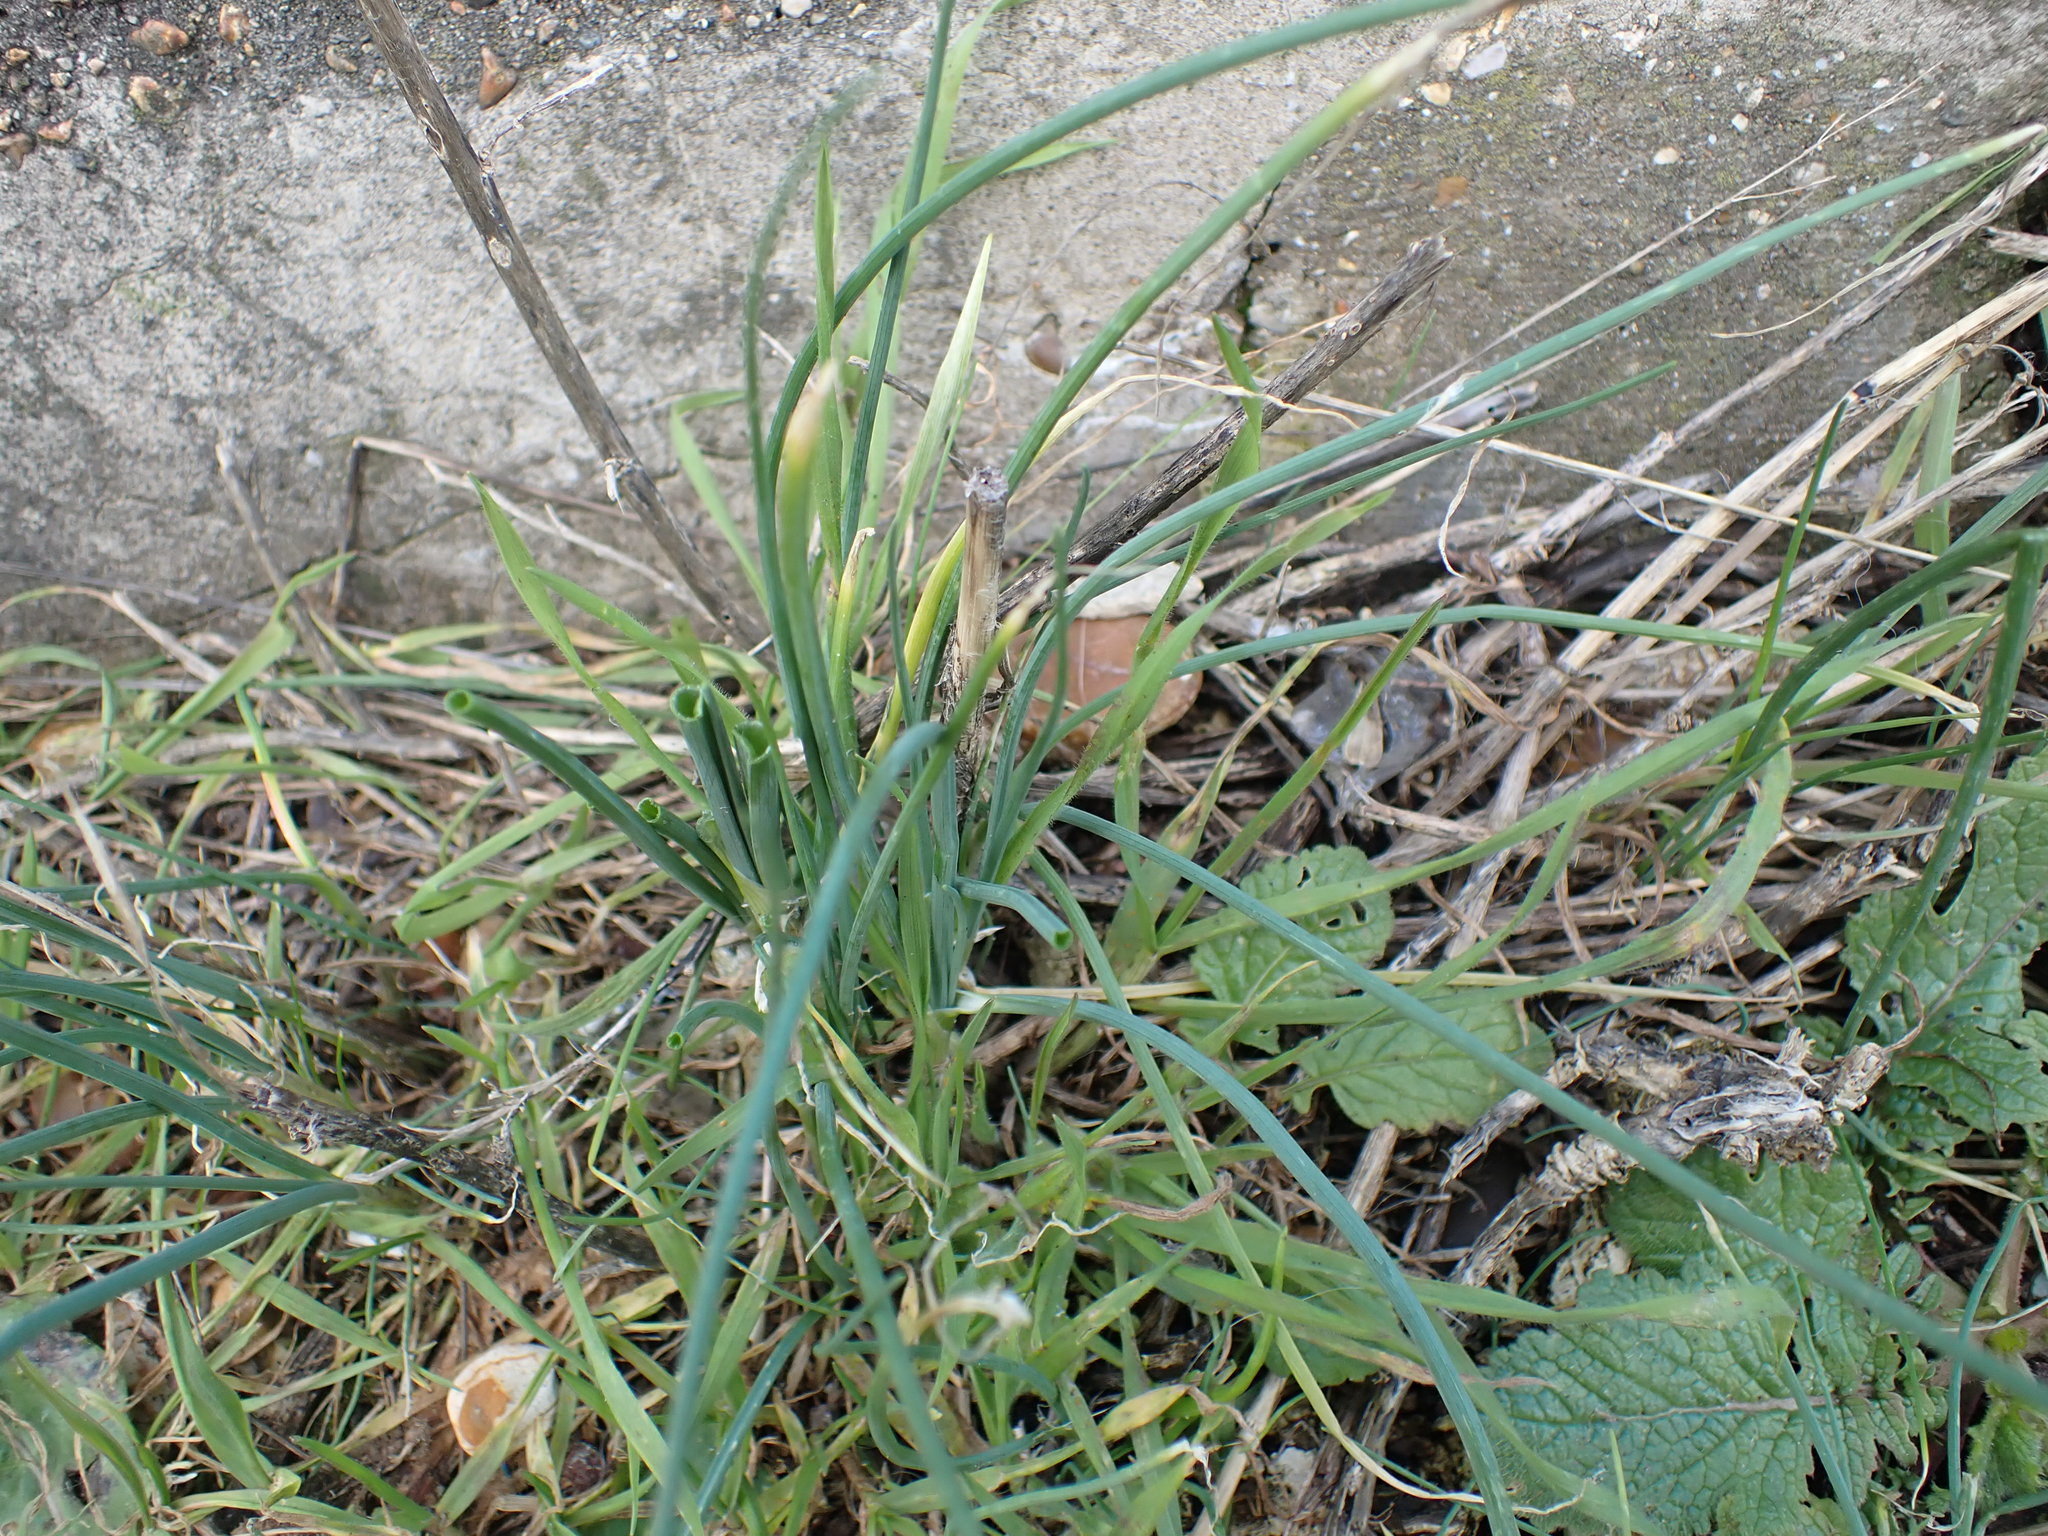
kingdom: Plantae
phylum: Tracheophyta
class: Liliopsida
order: Asparagales
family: Amaryllidaceae
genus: Allium
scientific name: Allium vineale
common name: Crow garlic
